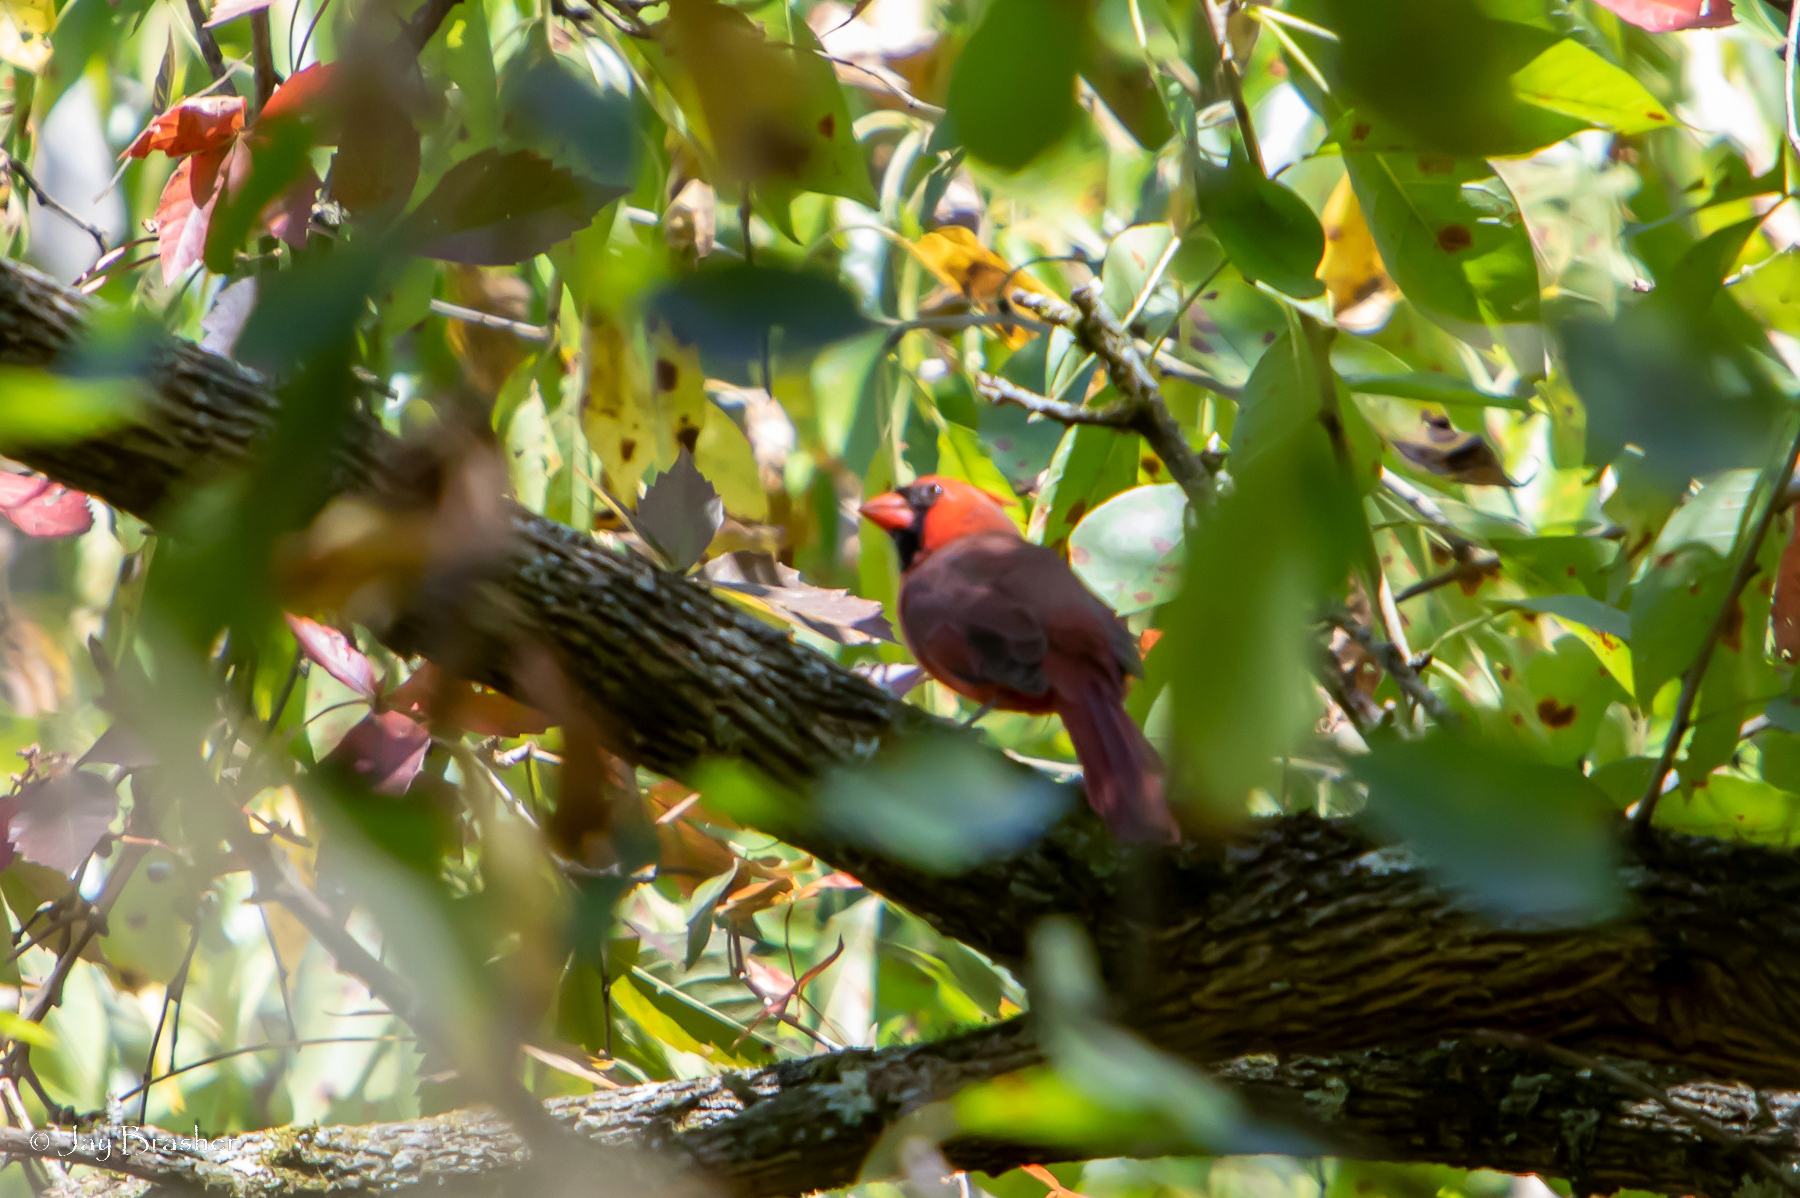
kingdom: Animalia
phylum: Chordata
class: Aves
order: Passeriformes
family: Cardinalidae
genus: Cardinalis
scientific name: Cardinalis cardinalis
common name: Northern cardinal
